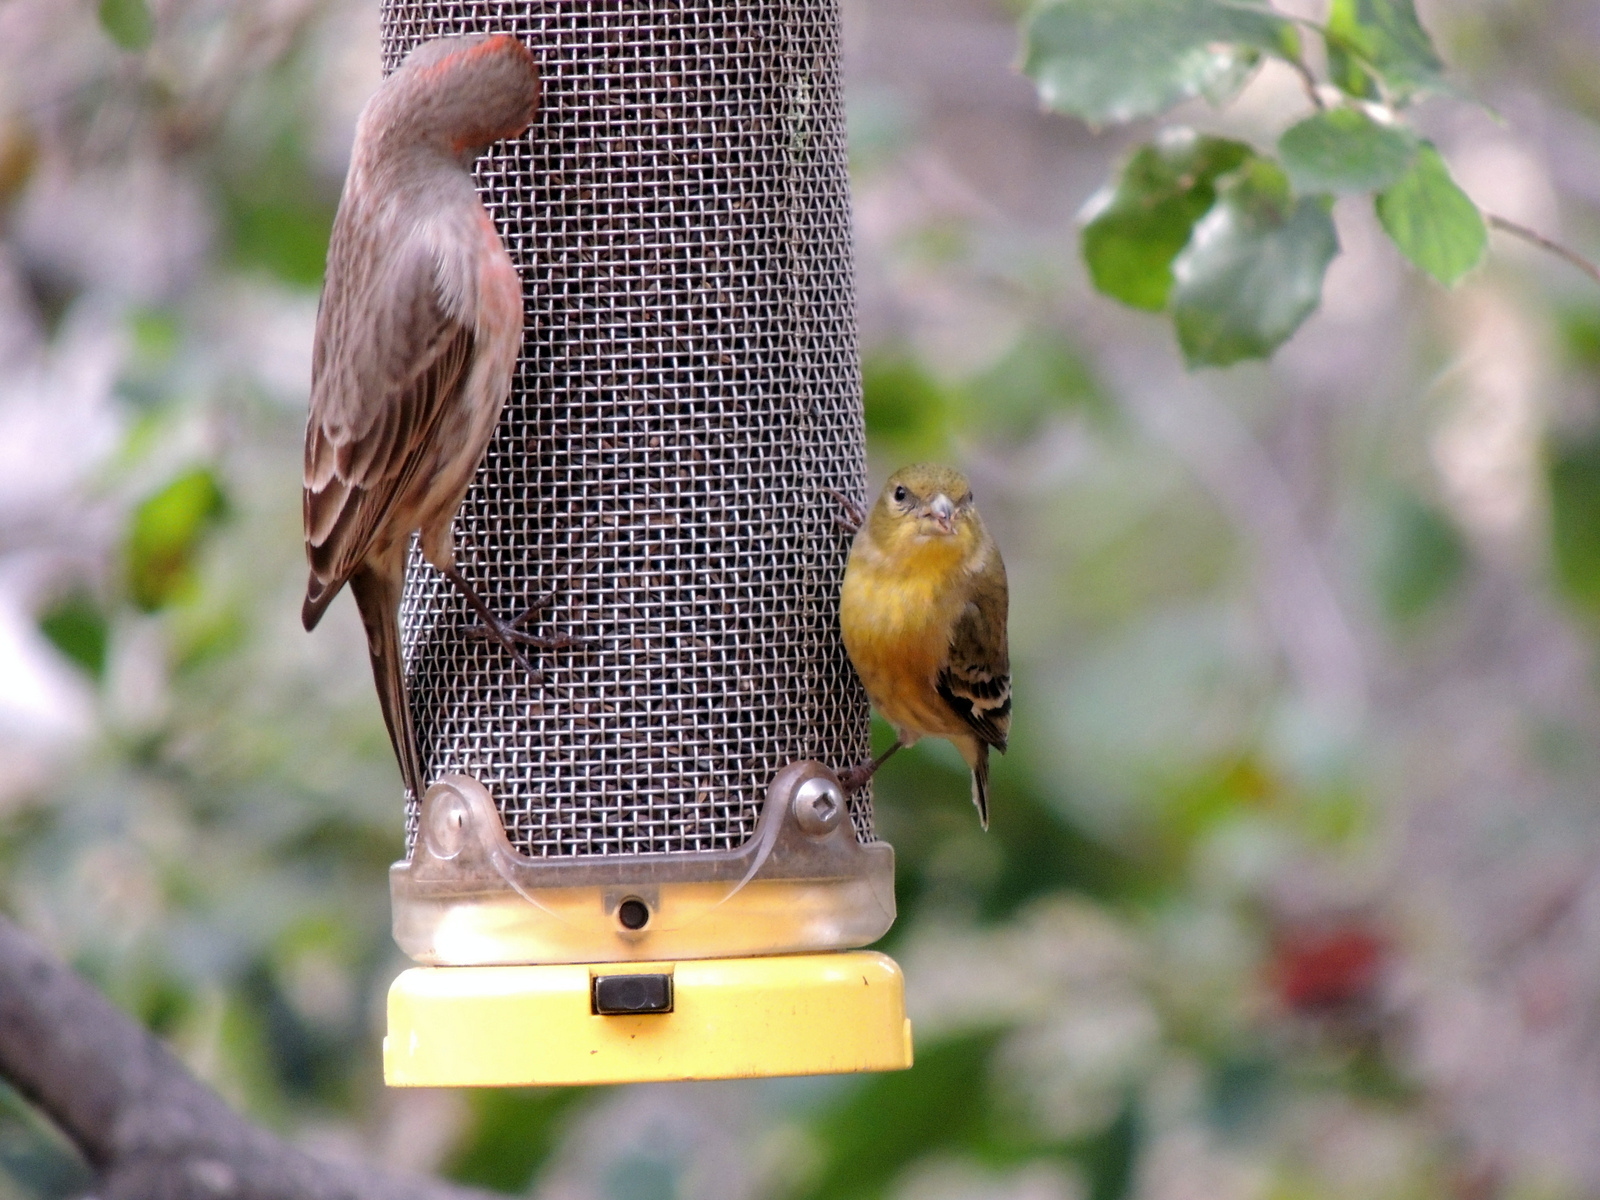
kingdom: Animalia
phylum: Chordata
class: Aves
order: Passeriformes
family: Fringillidae
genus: Spinus
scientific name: Spinus tristis
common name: American goldfinch
